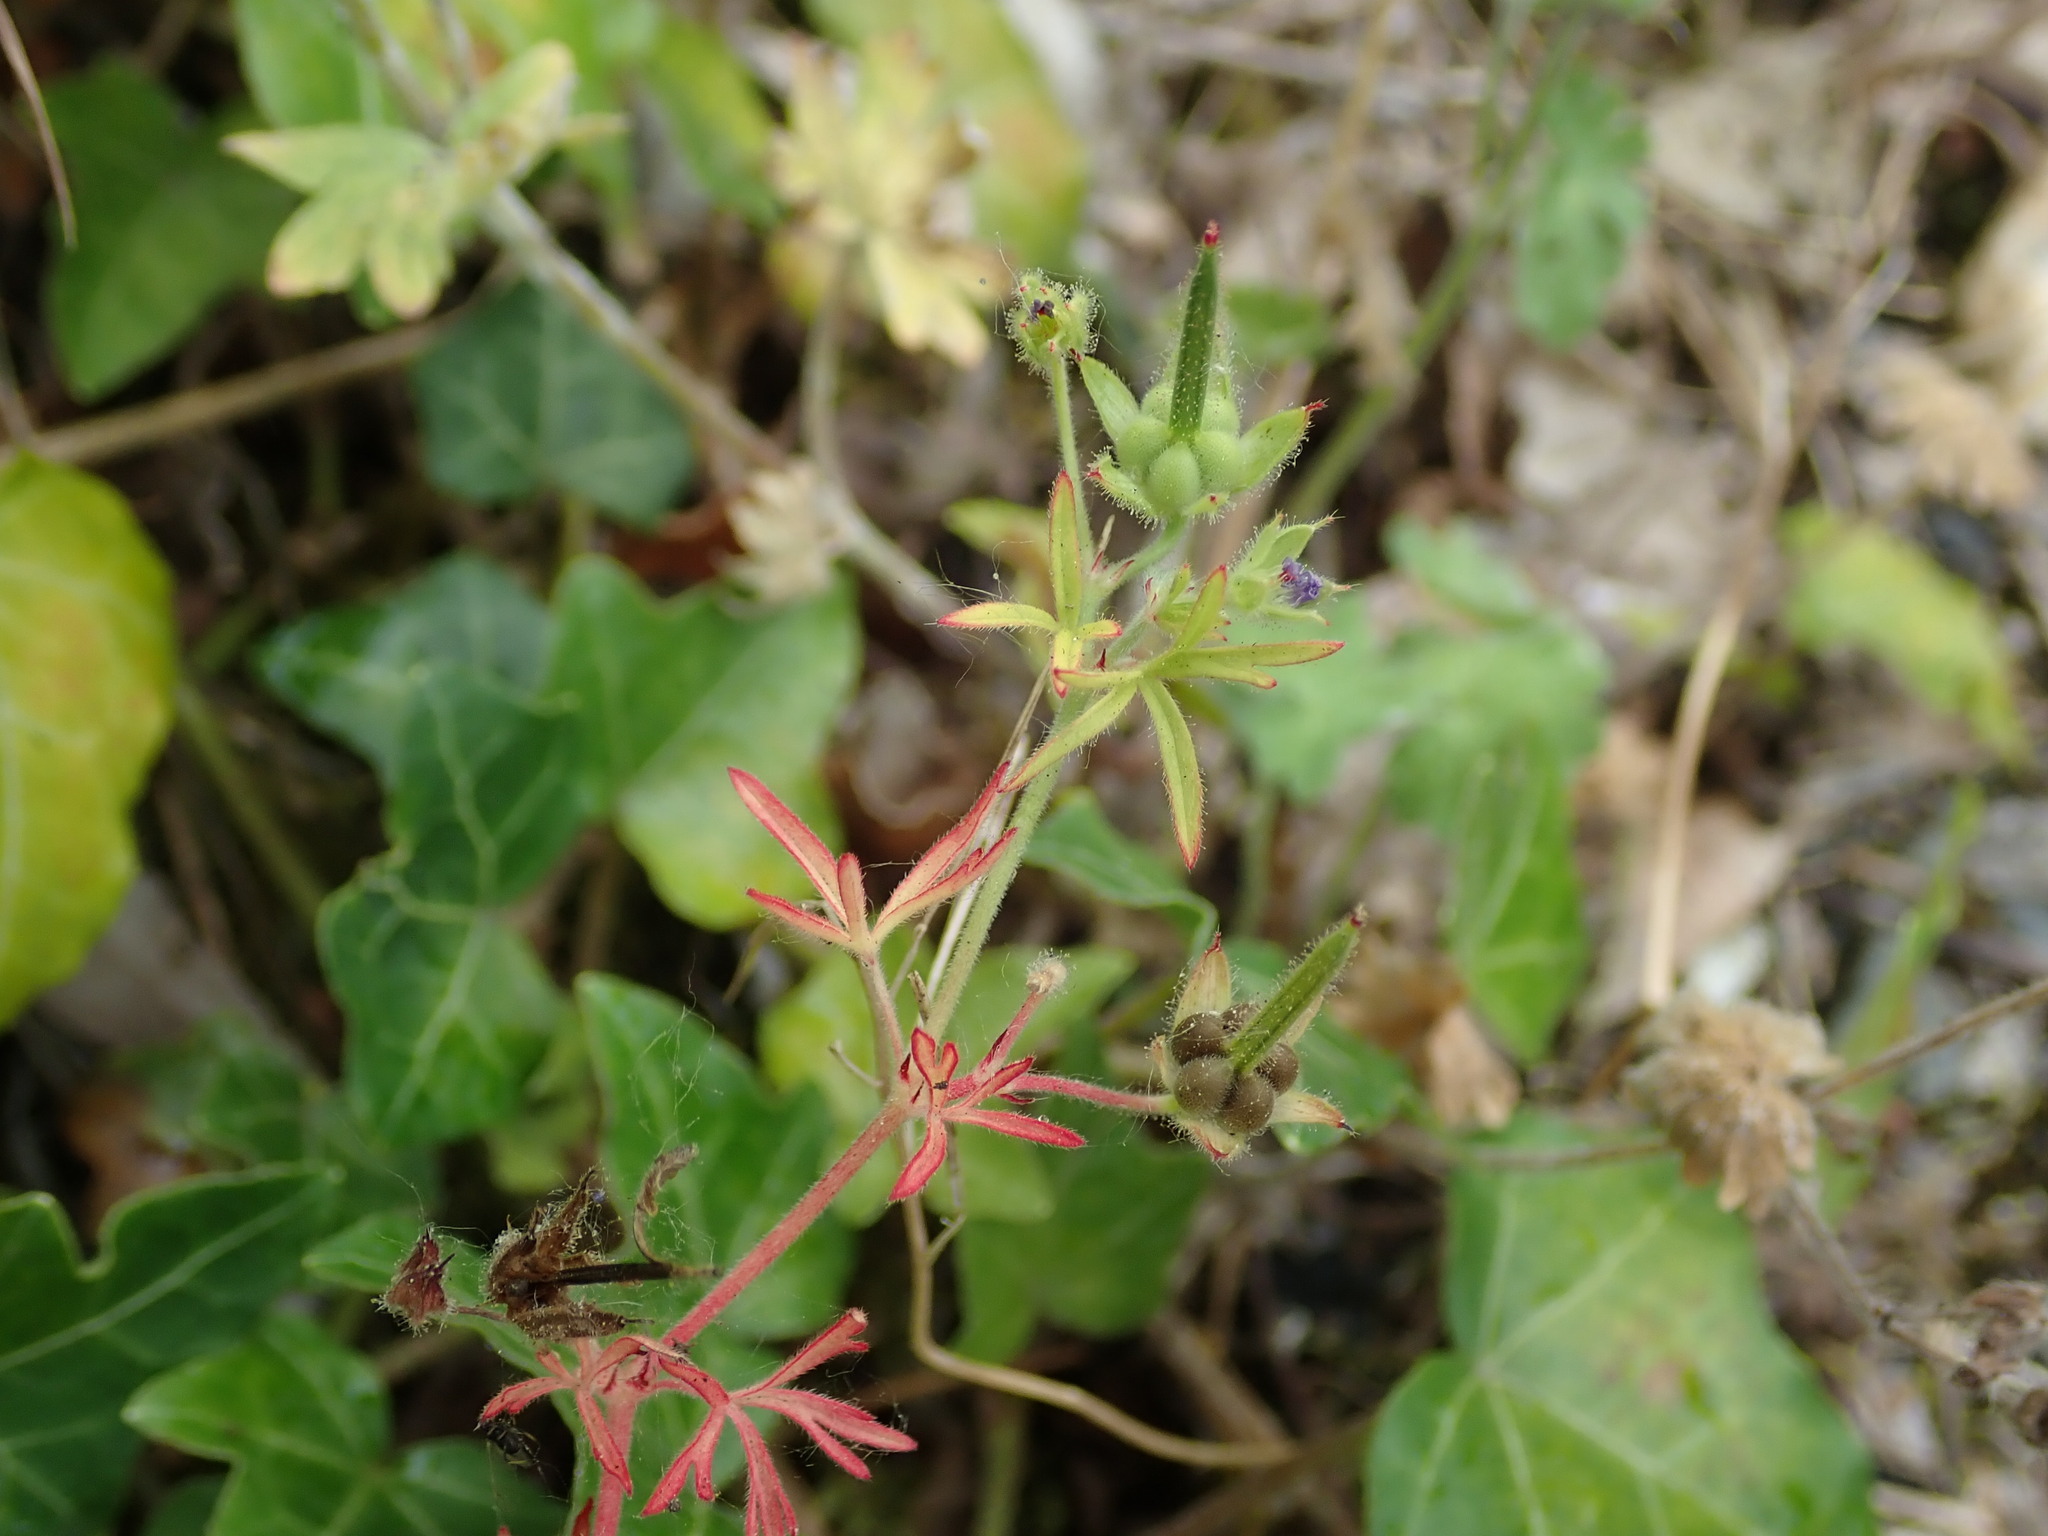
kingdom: Plantae
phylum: Tracheophyta
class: Magnoliopsida
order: Geraniales
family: Geraniaceae
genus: Geranium
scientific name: Geranium dissectum
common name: Cut-leaved crane's-bill
